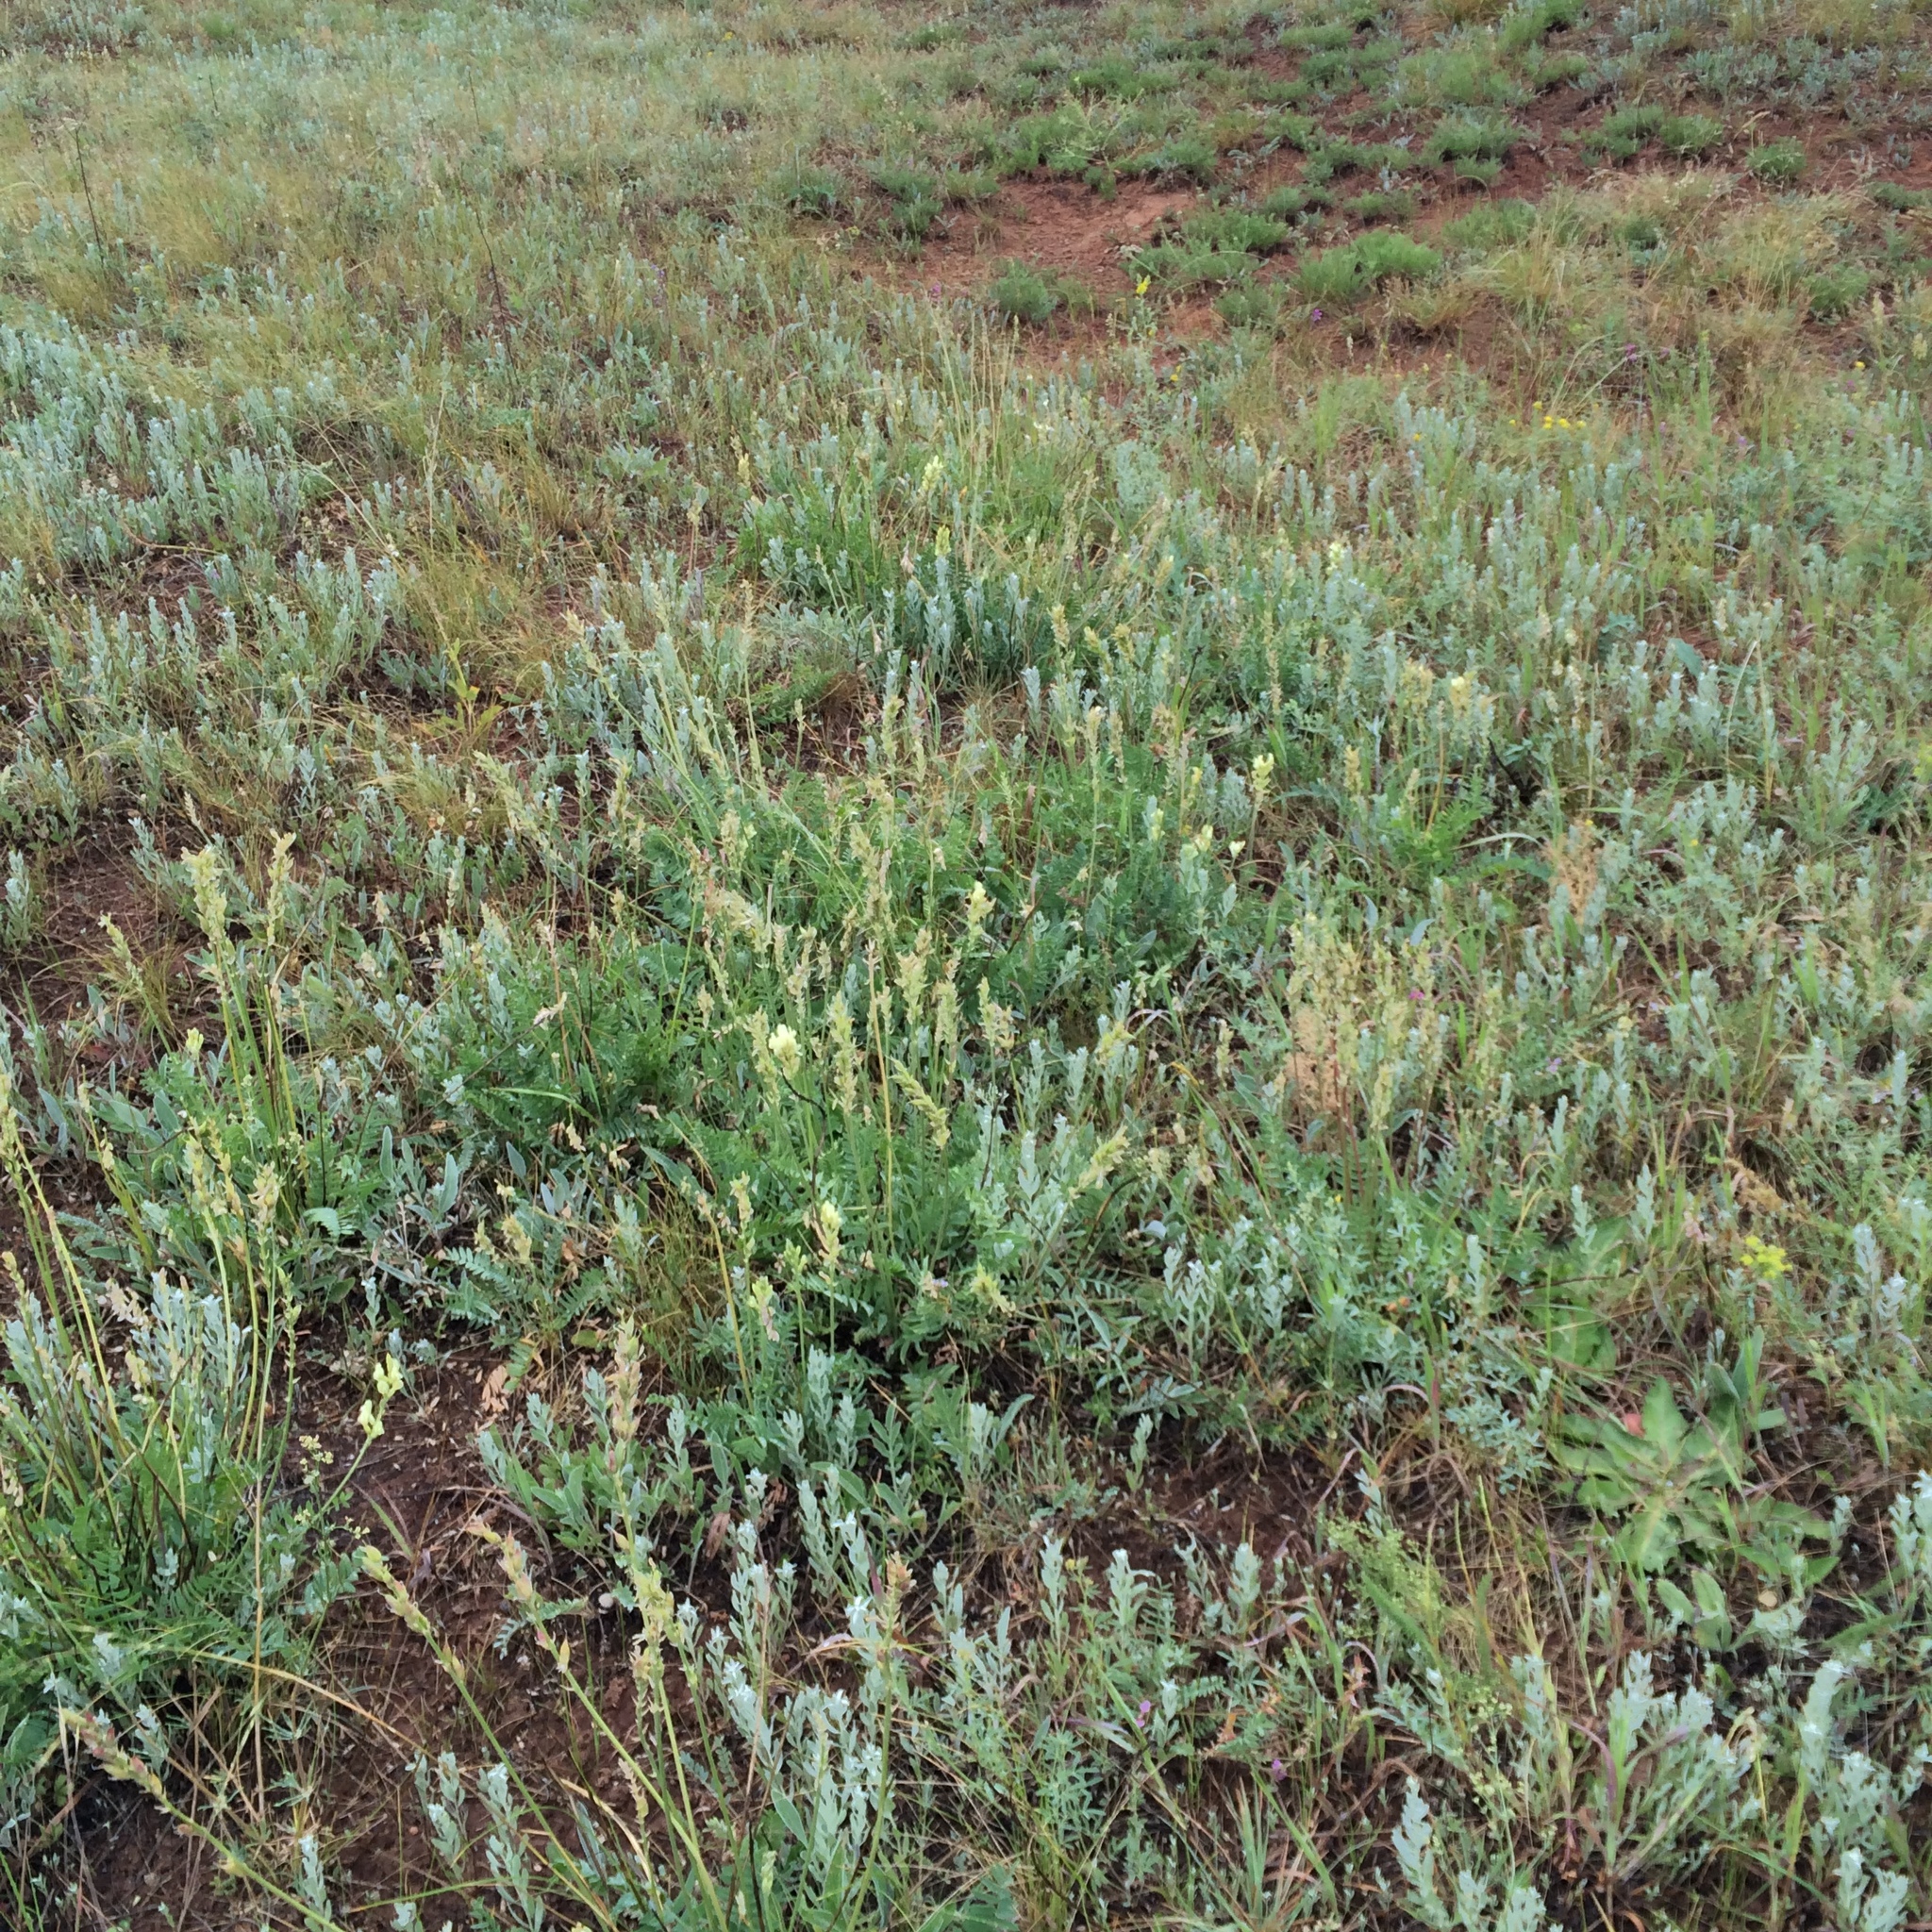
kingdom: Plantae
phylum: Tracheophyta
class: Magnoliopsida
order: Fabales
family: Fabaceae
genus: Oxytropis
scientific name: Oxytropis hippolyti
